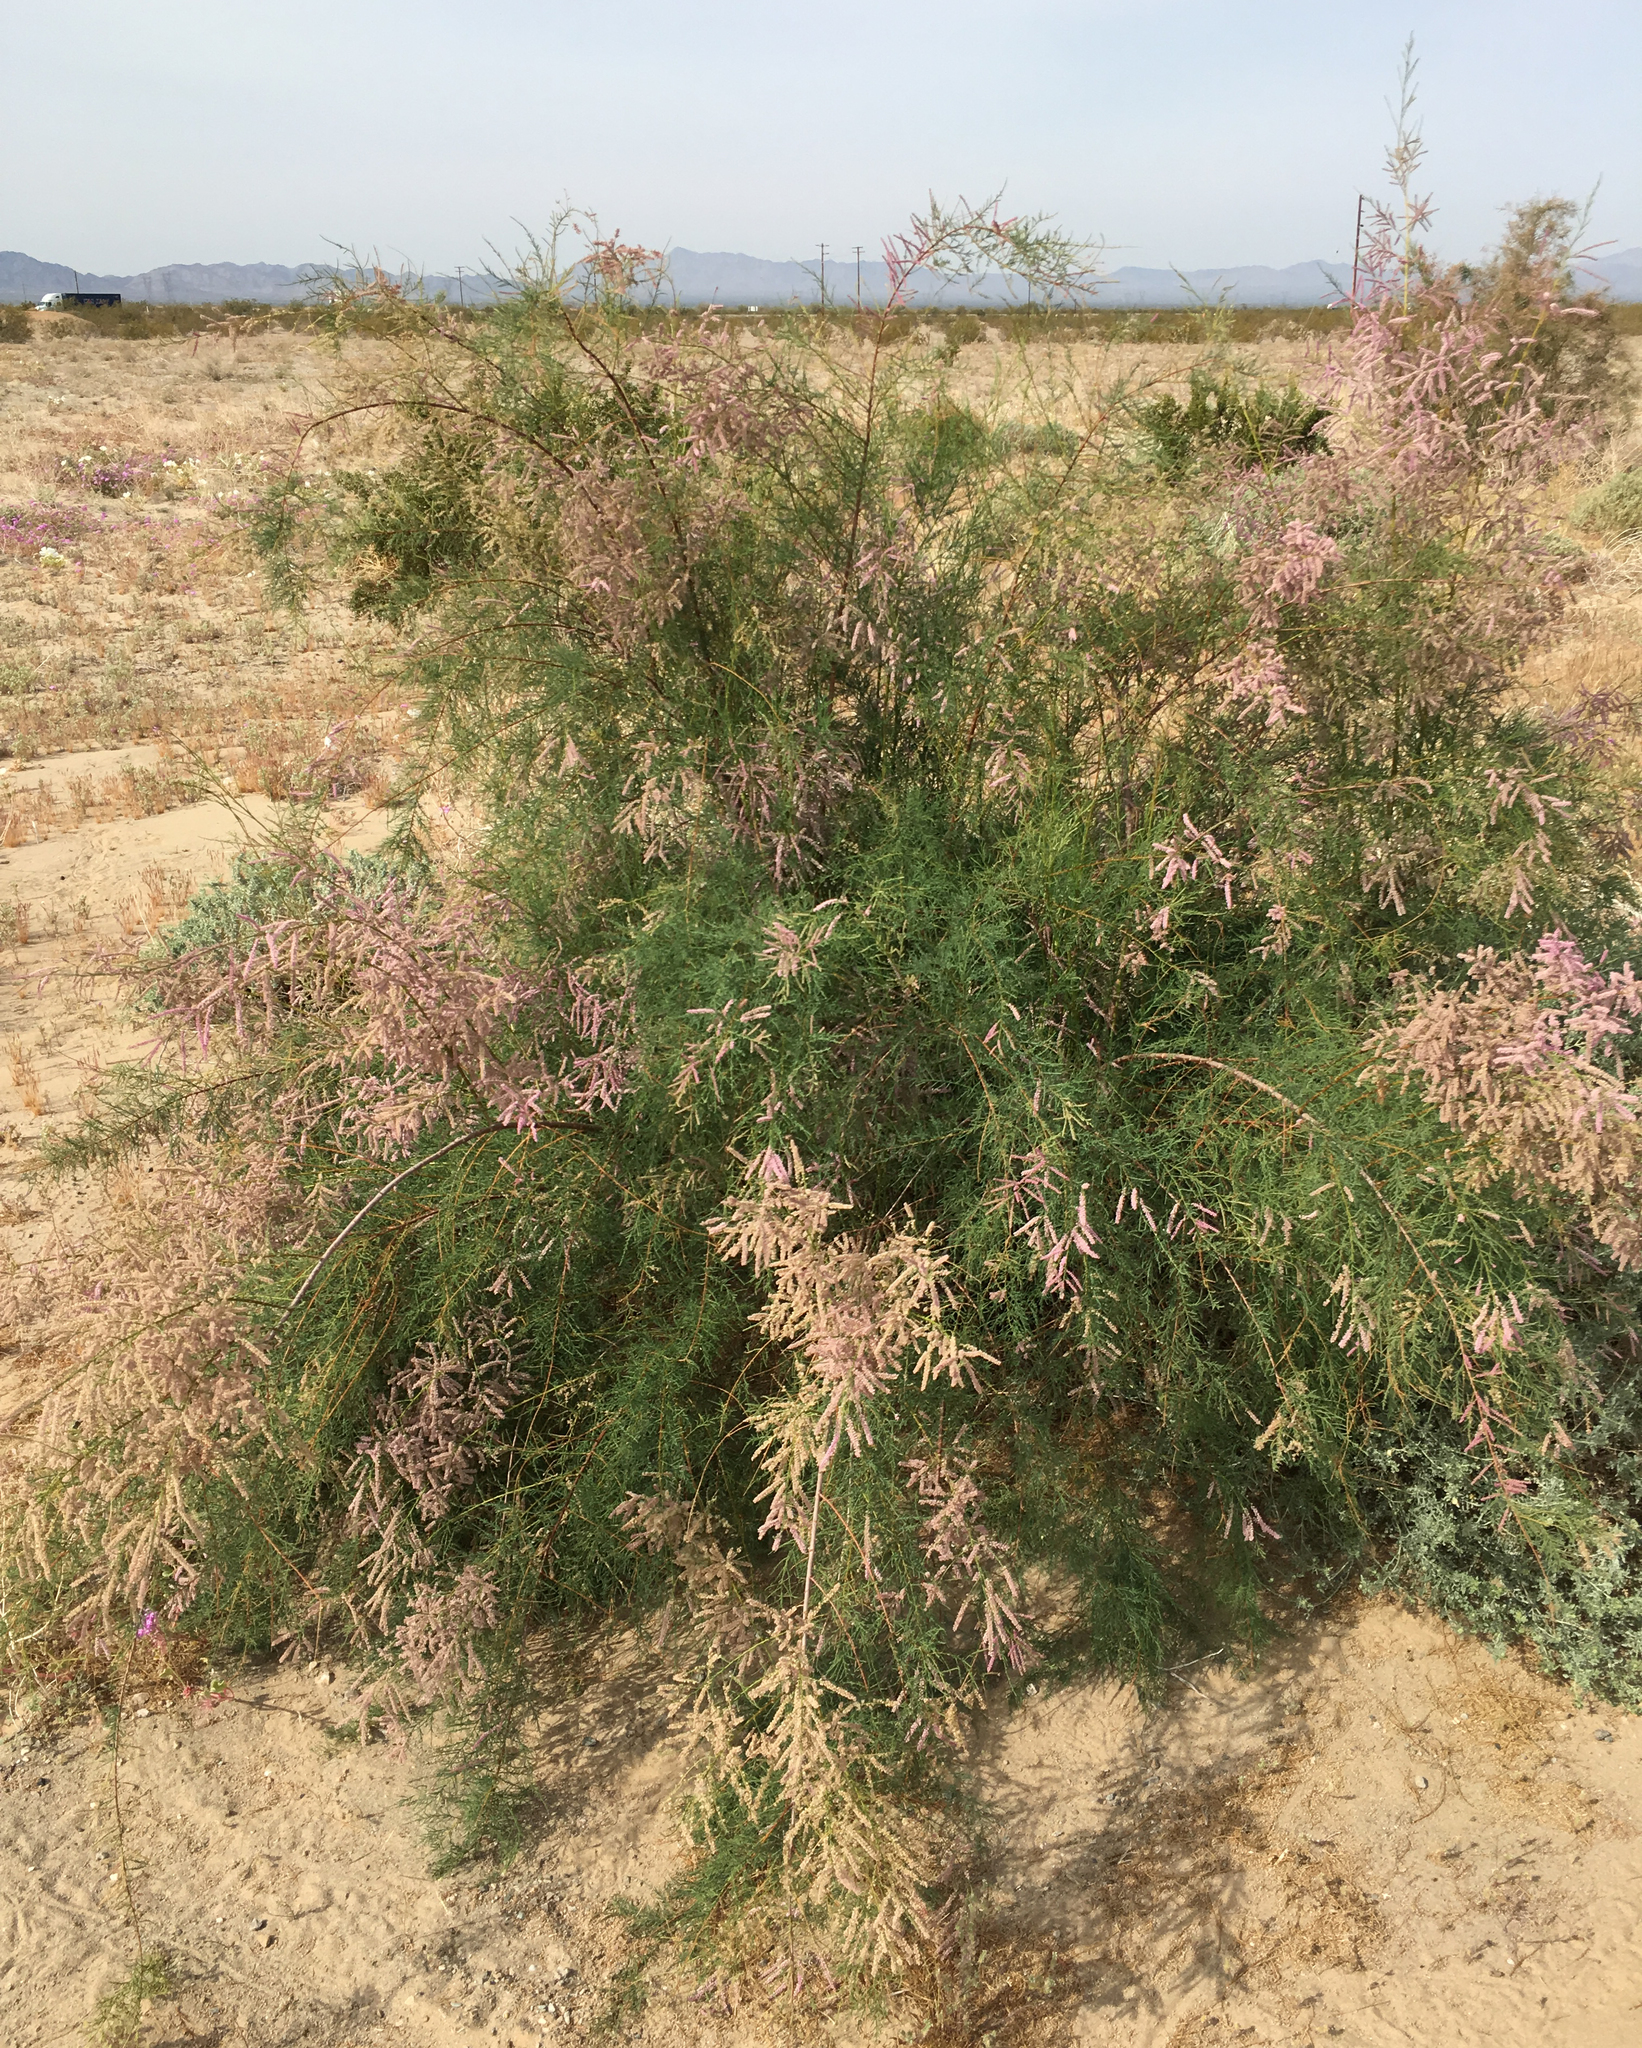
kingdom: Plantae
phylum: Tracheophyta
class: Magnoliopsida
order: Caryophyllales
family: Tamaricaceae
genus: Tamarix
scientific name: Tamarix
